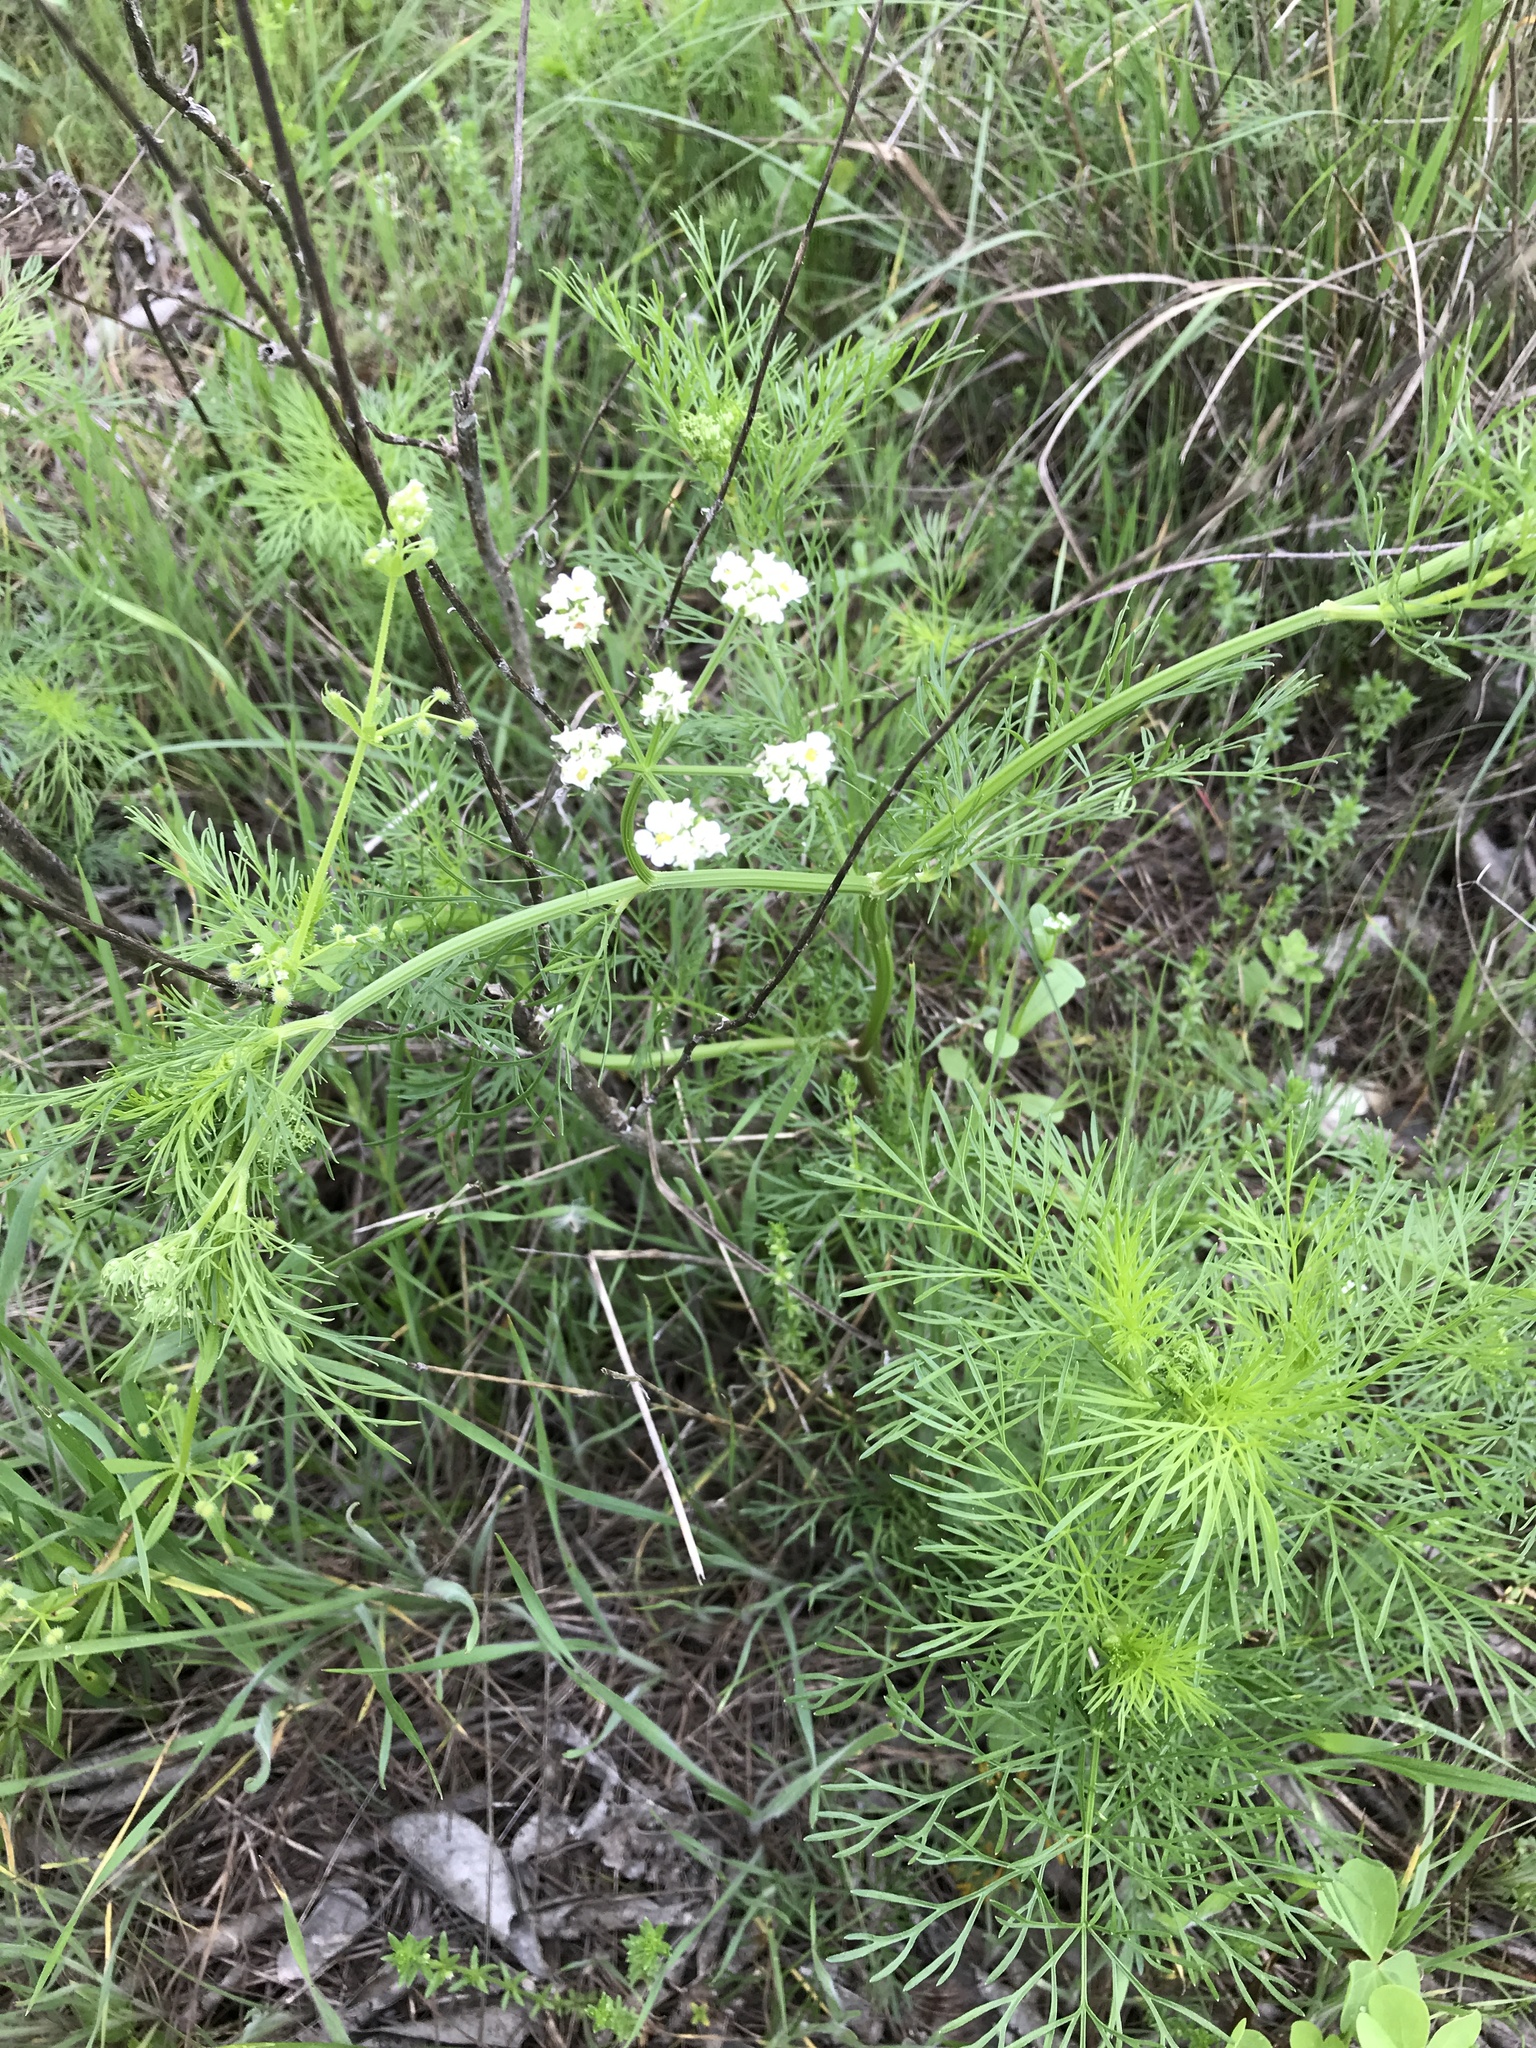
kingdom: Plantae
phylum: Tracheophyta
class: Magnoliopsida
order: Apiales
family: Apiaceae
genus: Atrema
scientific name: Atrema americanum
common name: Prairie-bishop
